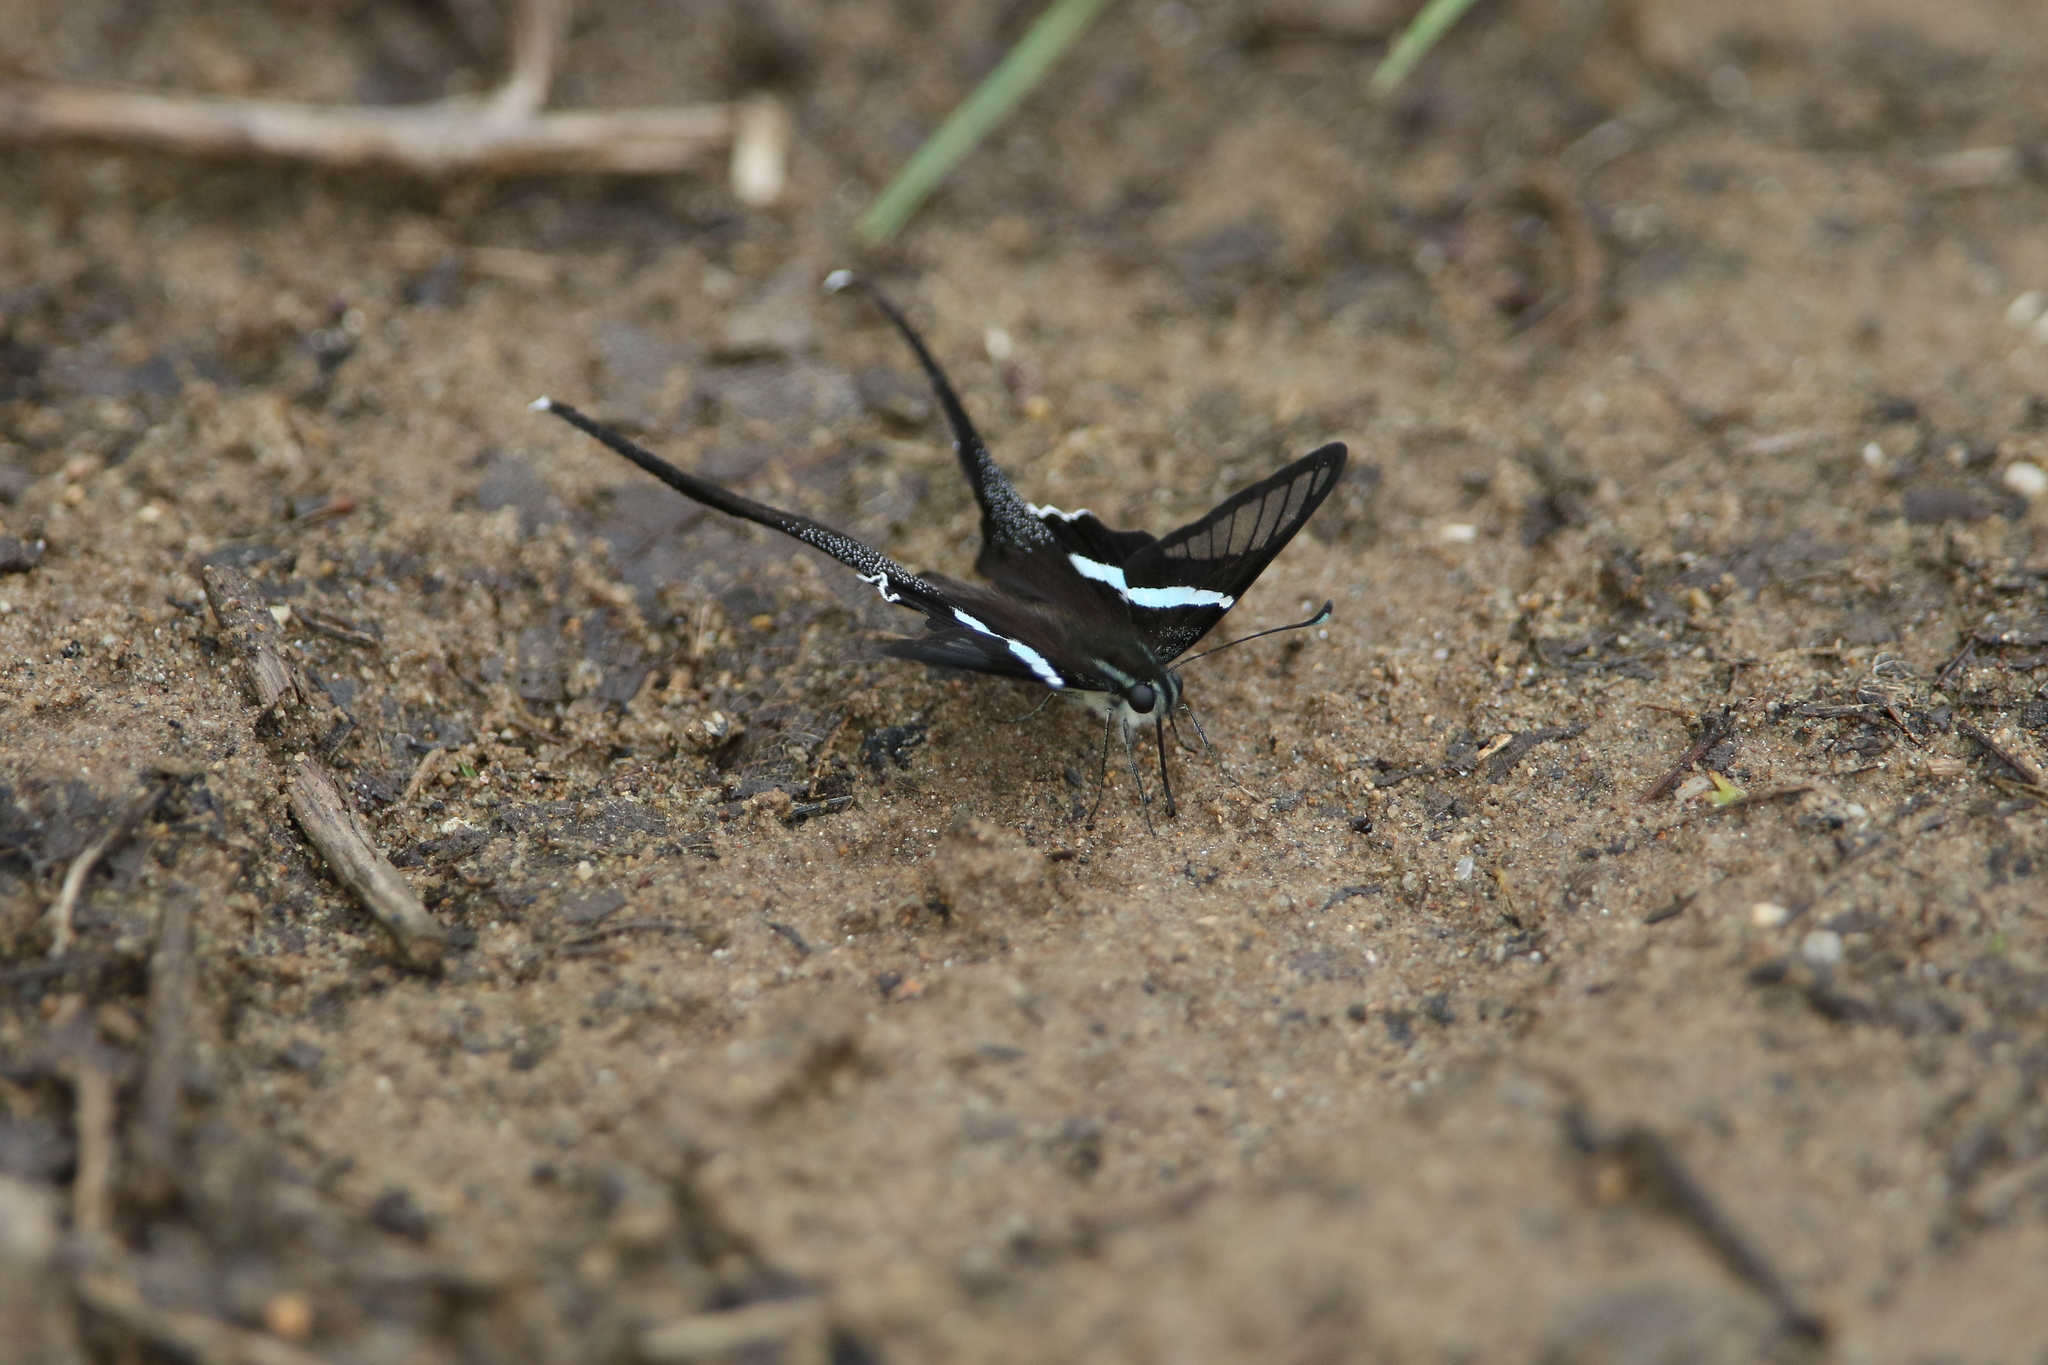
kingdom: Animalia
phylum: Arthropoda
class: Insecta
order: Lepidoptera
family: Papilionidae
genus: Lamproptera
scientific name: Lamproptera meges
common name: Green dragontail
